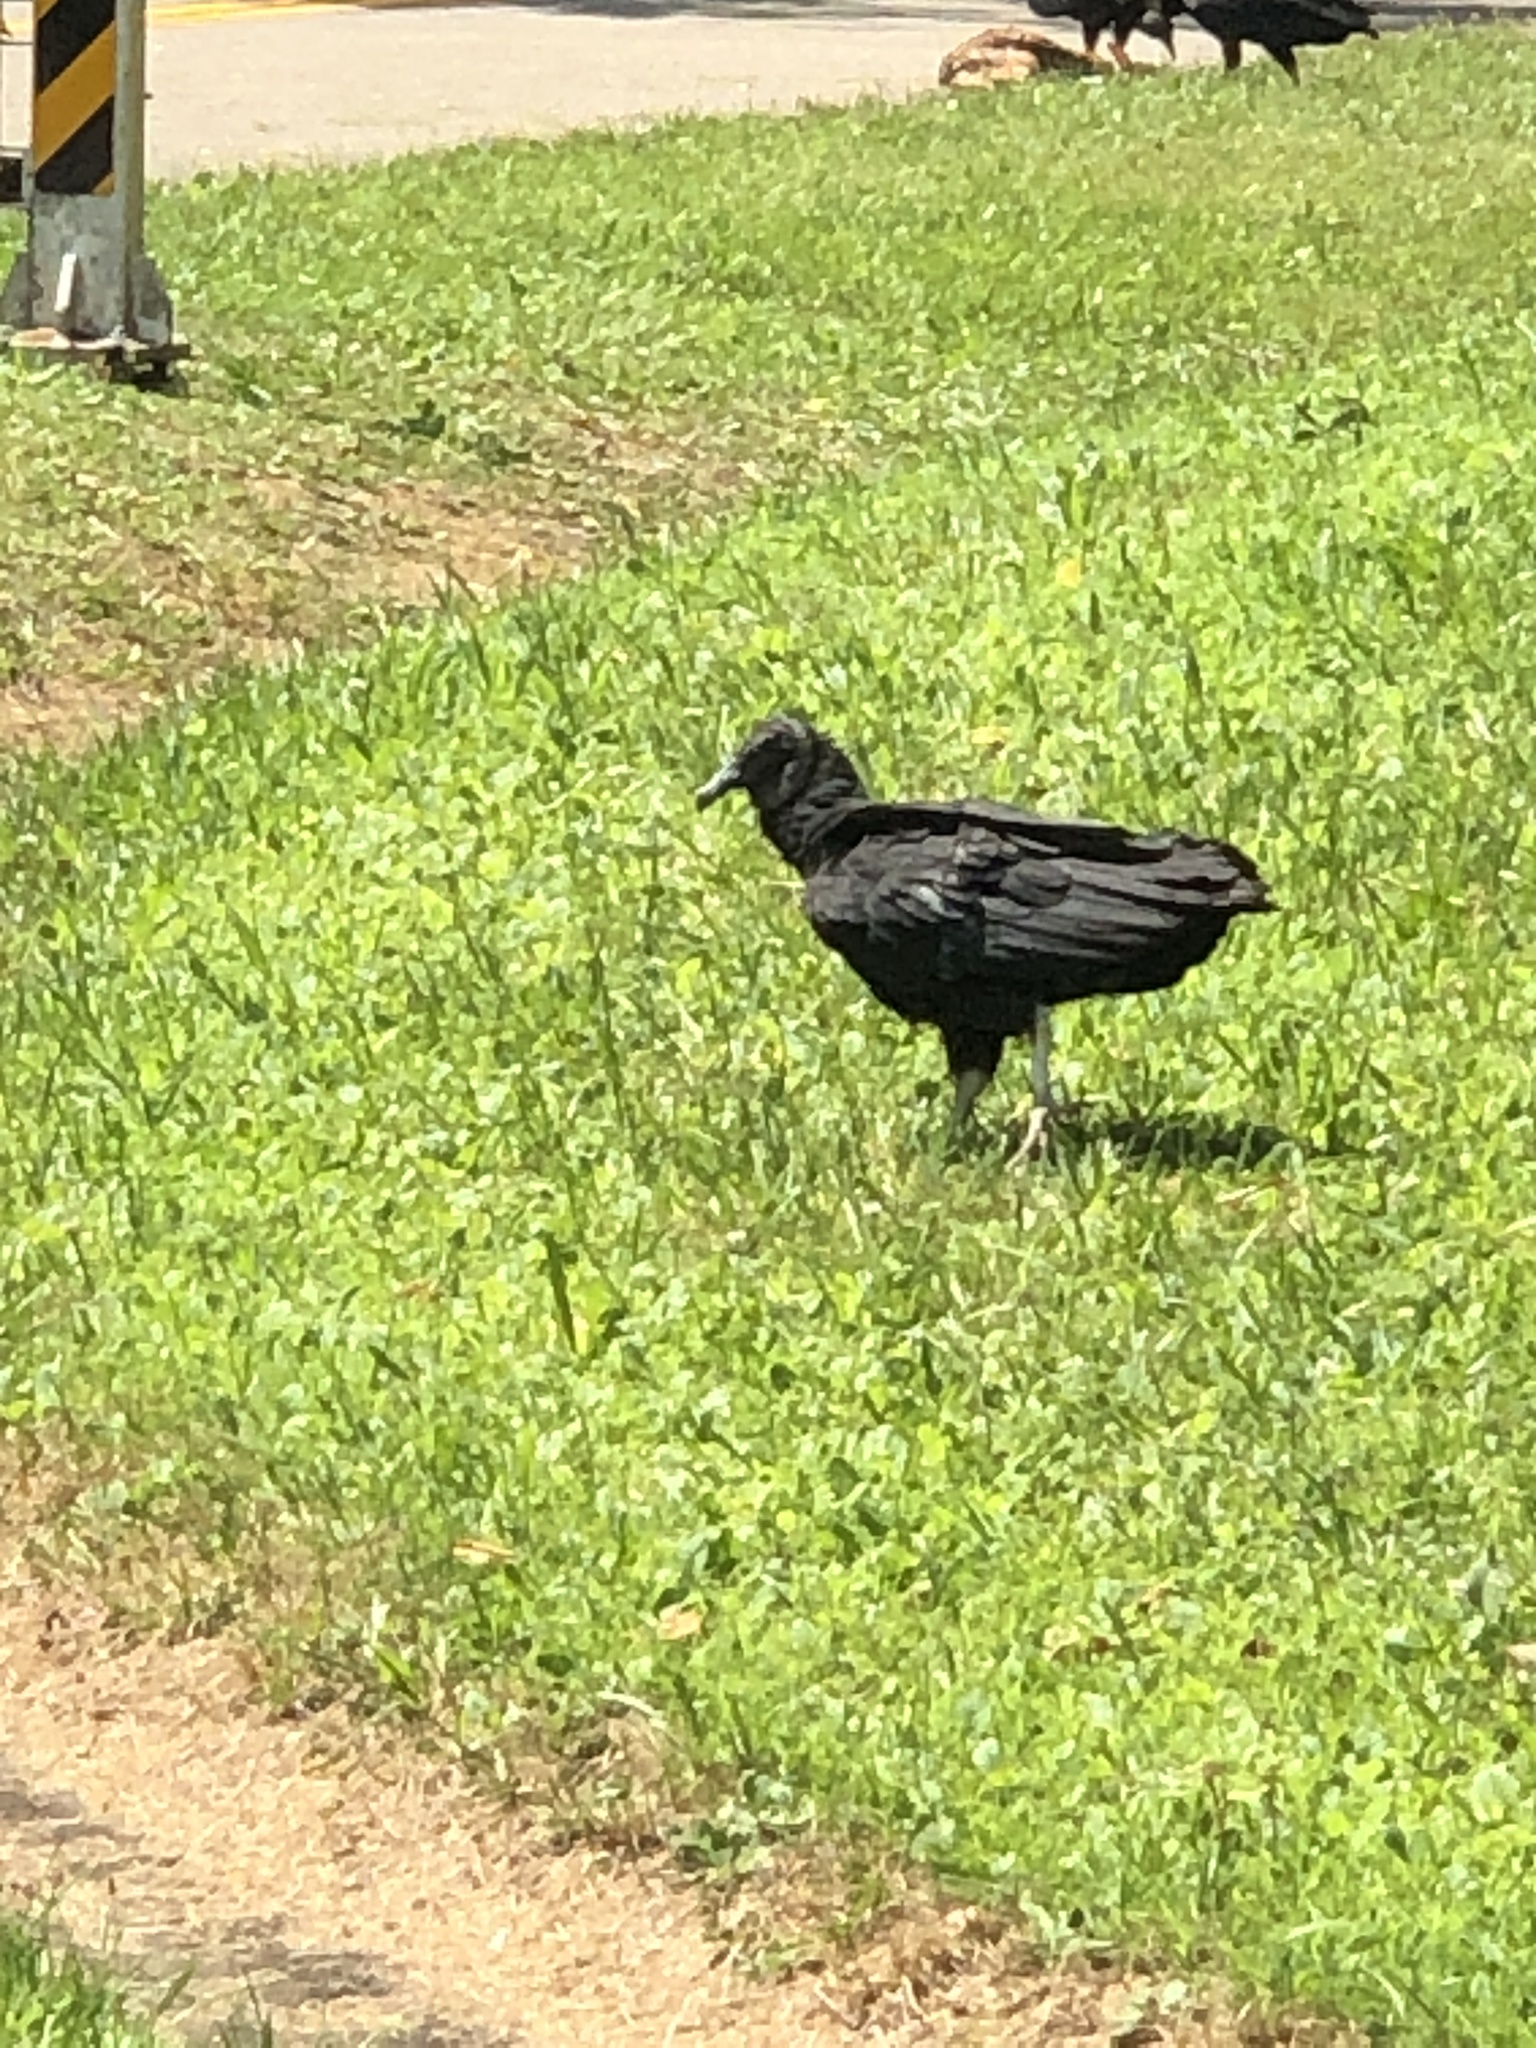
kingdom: Animalia
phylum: Chordata
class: Aves
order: Accipitriformes
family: Cathartidae
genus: Coragyps
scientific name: Coragyps atratus
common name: Black vulture
